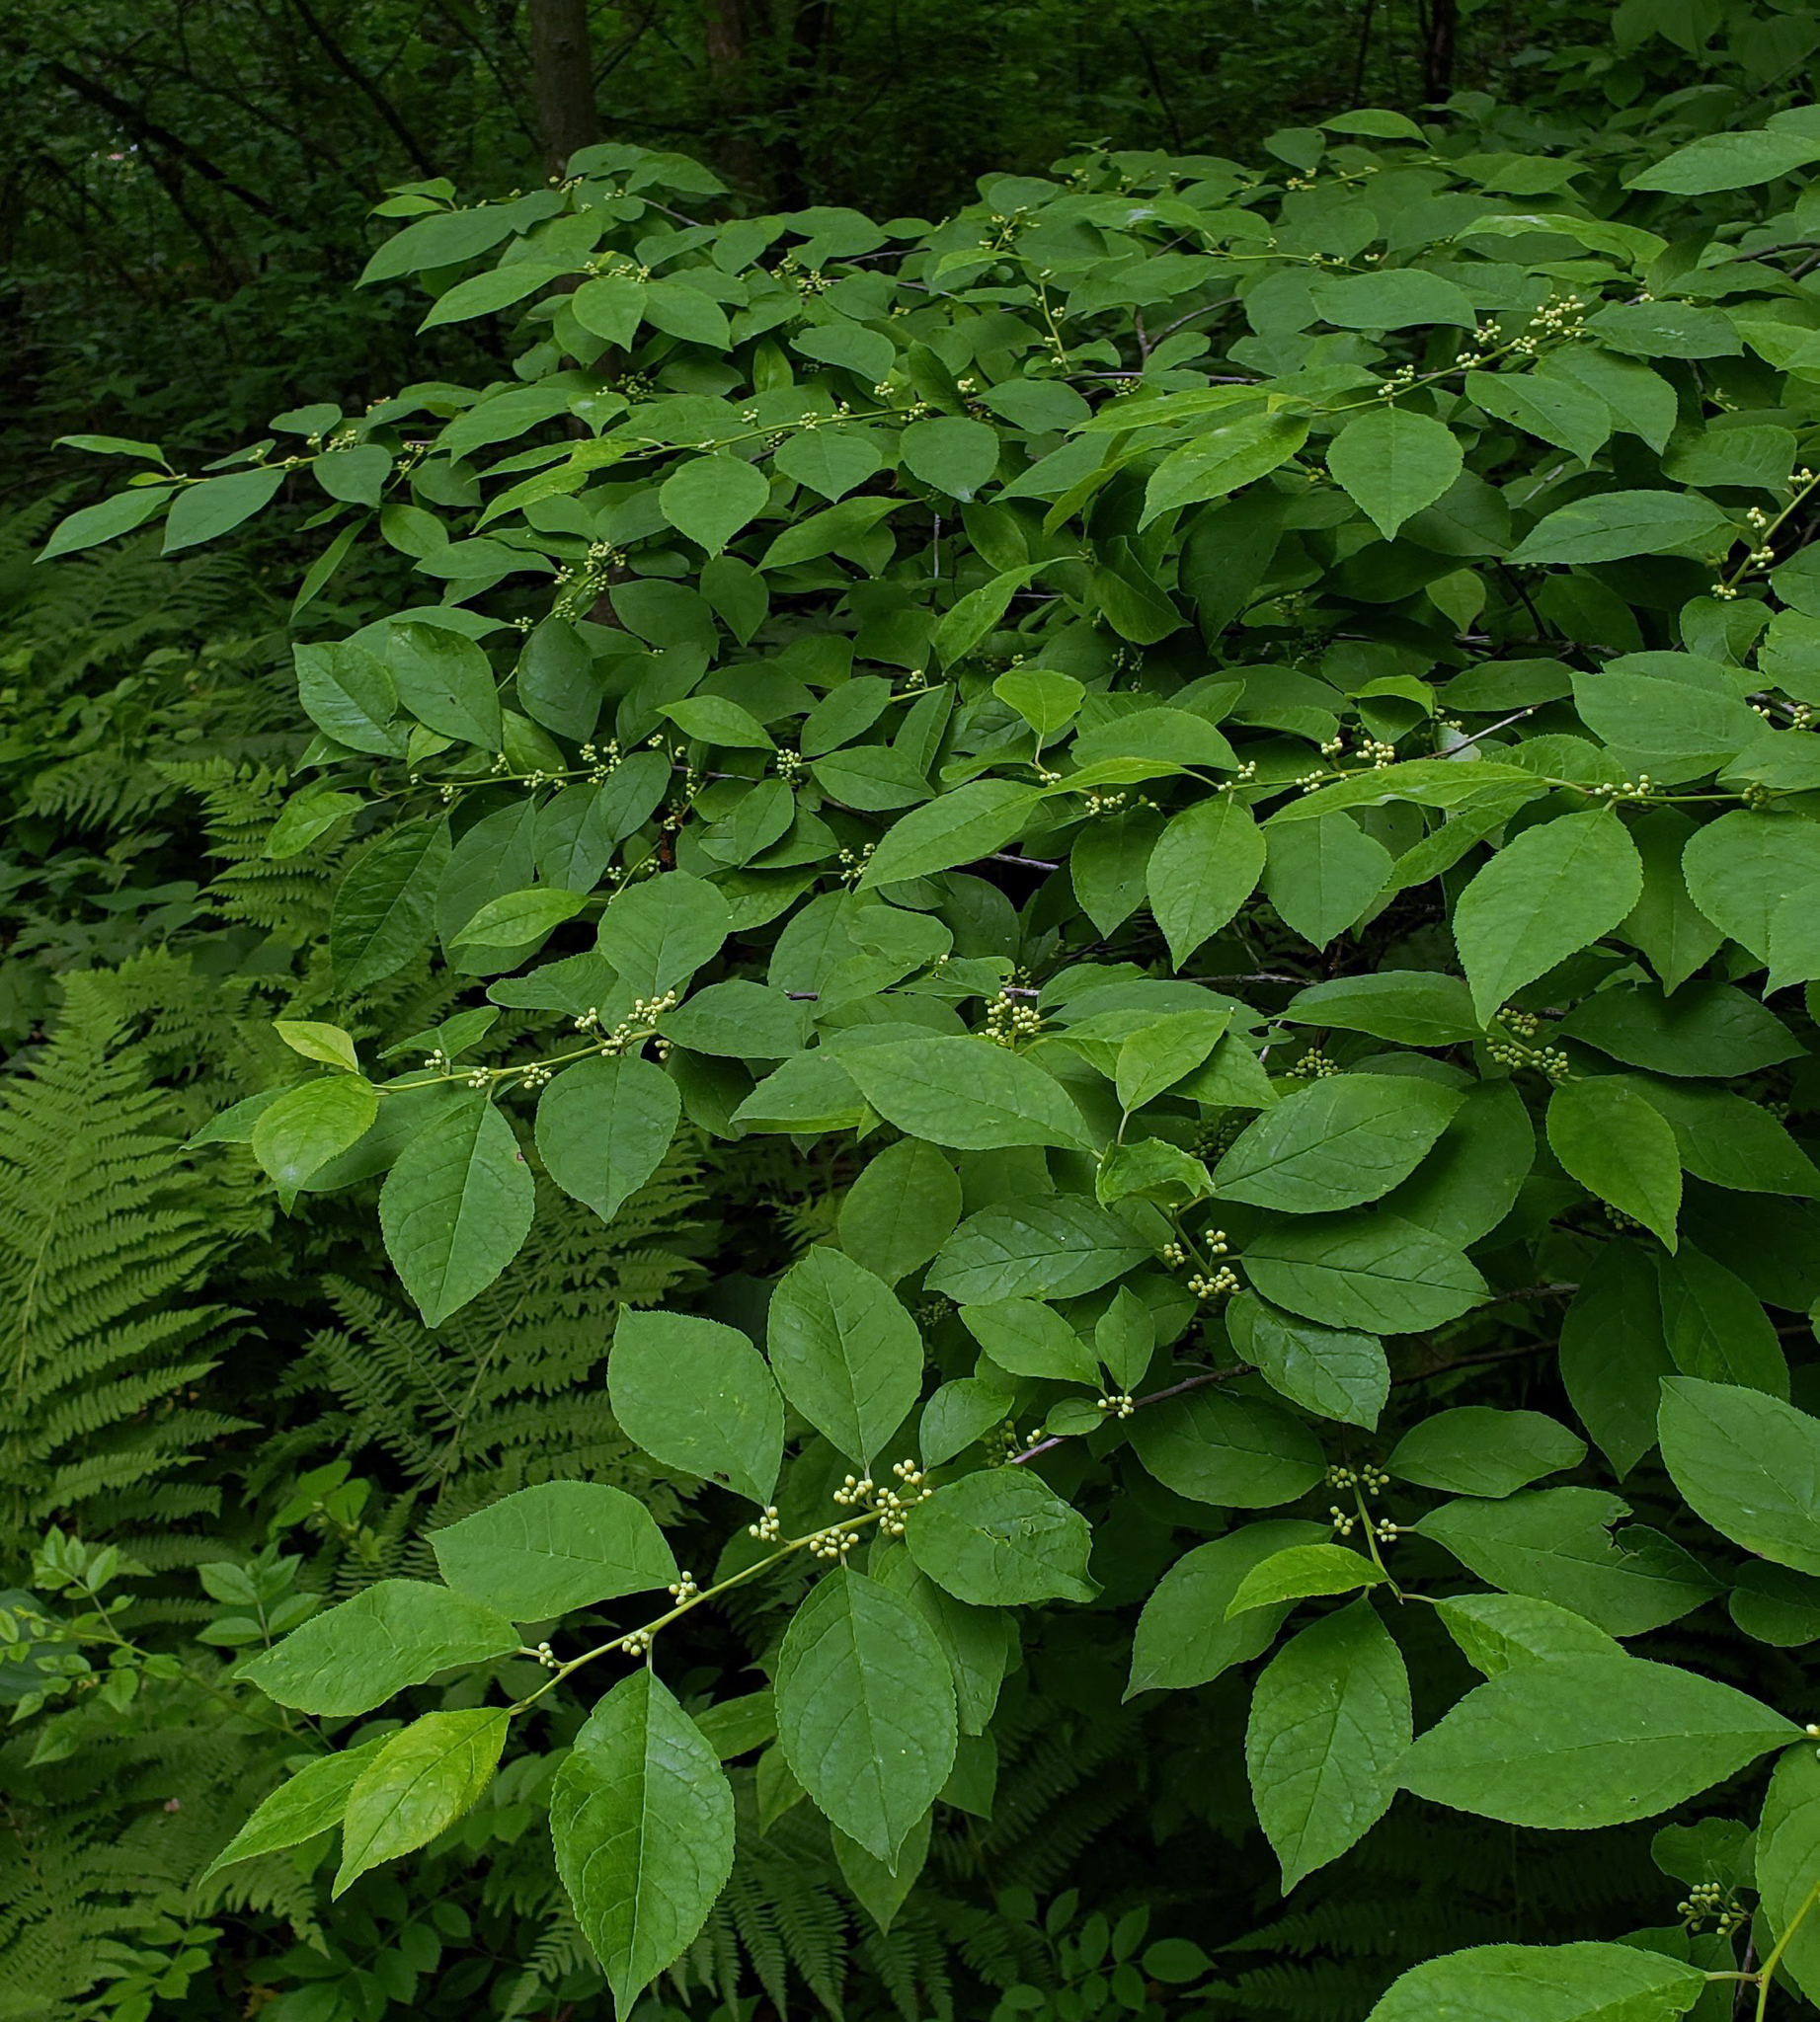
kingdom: Plantae
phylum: Tracheophyta
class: Magnoliopsida
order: Aquifoliales
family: Aquifoliaceae
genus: Ilex
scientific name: Ilex verticillata
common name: Virginia winterberry
